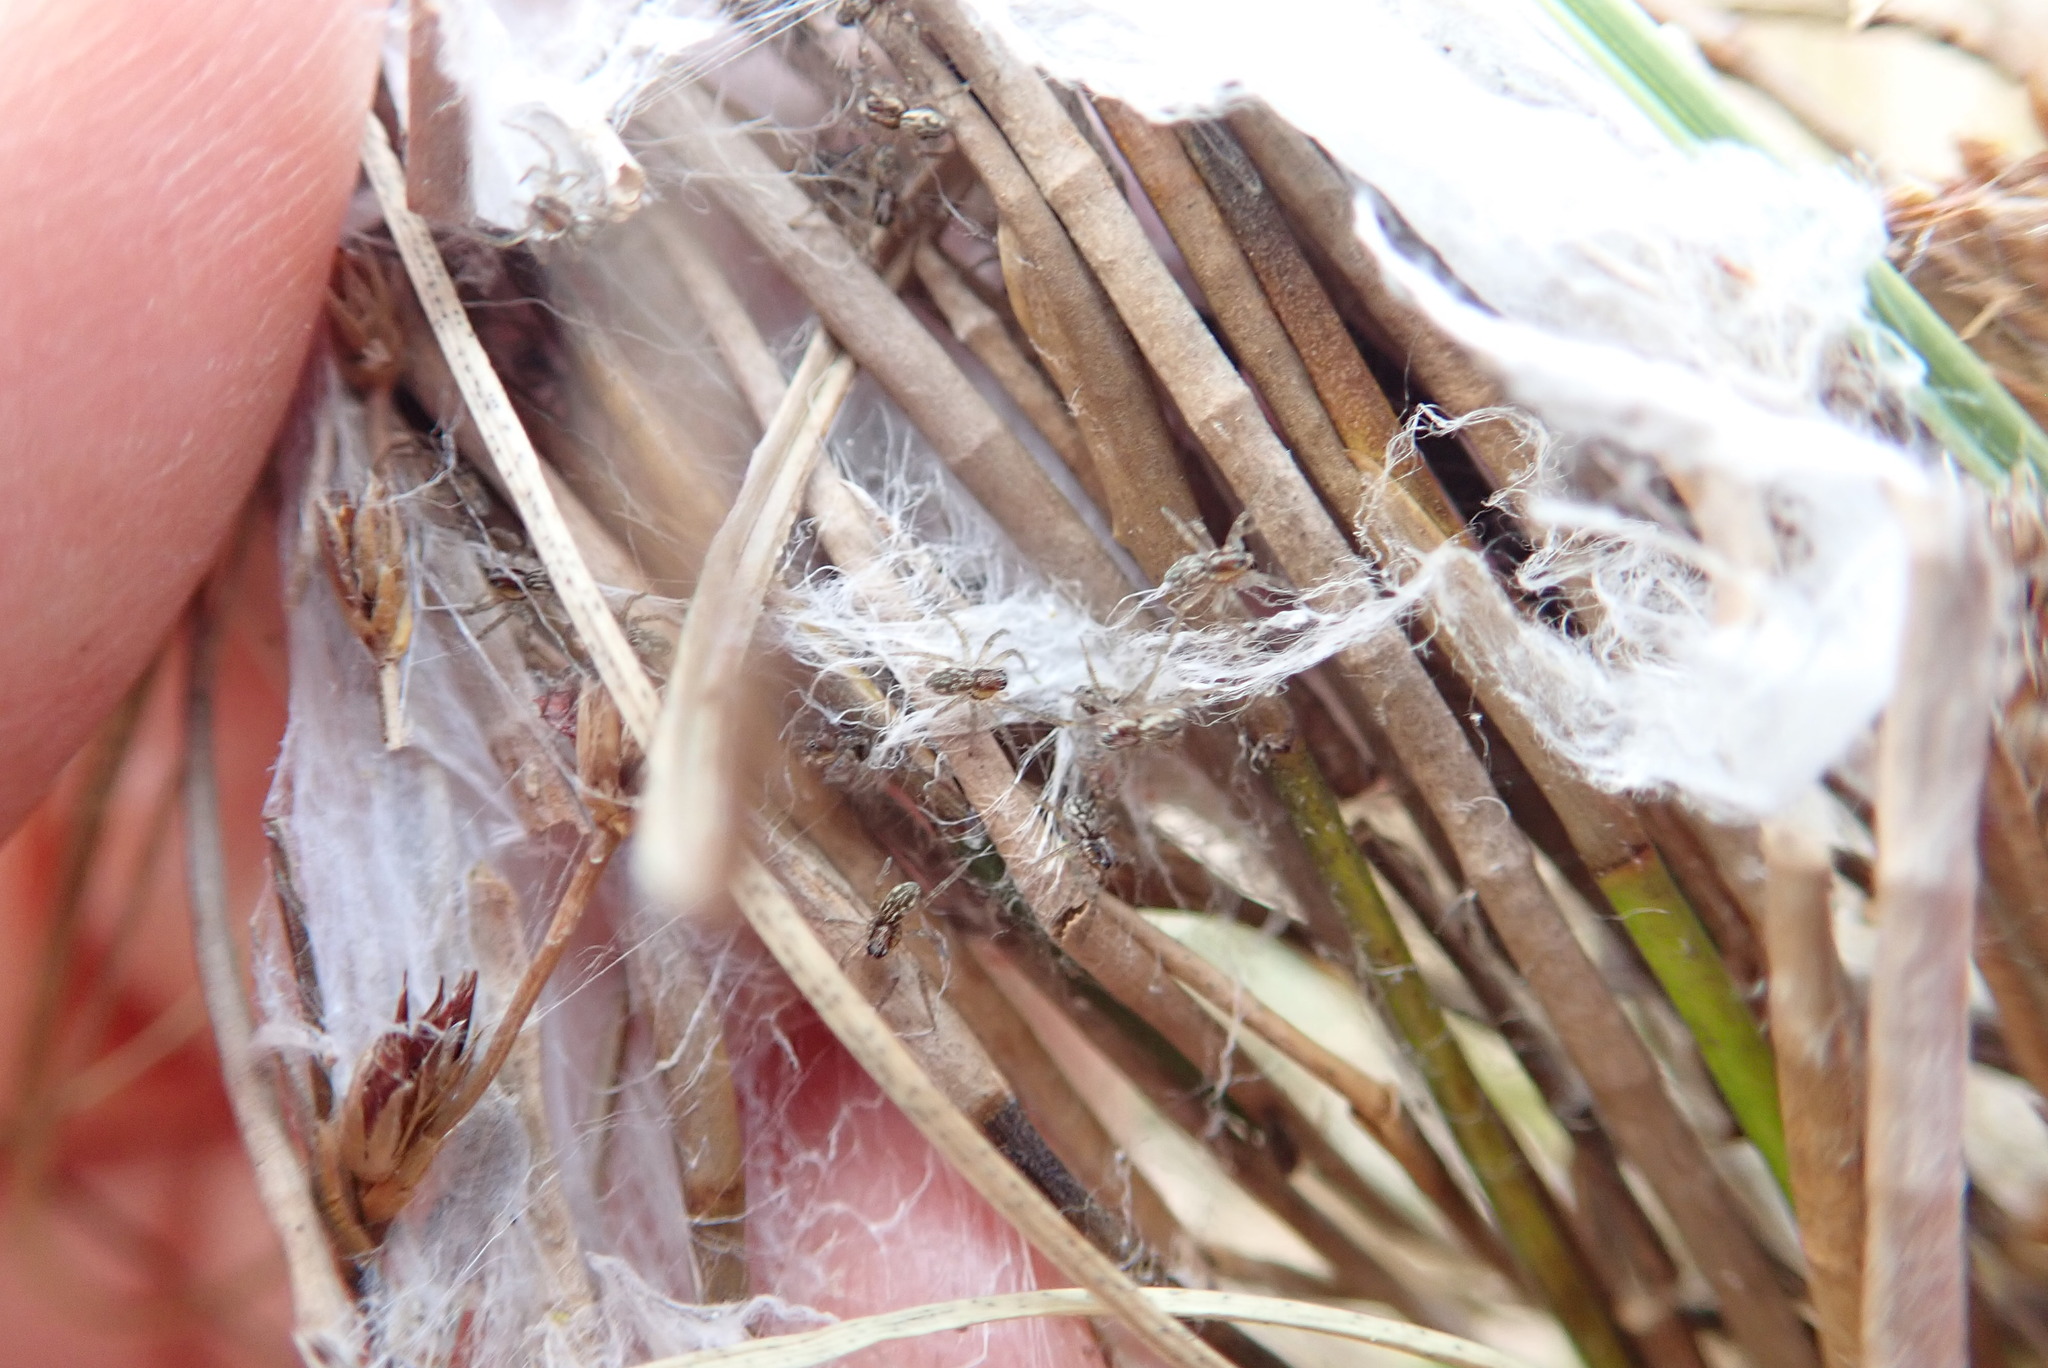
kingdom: Animalia
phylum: Arthropoda
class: Arachnida
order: Araneae
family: Pisauridae
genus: Dolomedes
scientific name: Dolomedes minor
